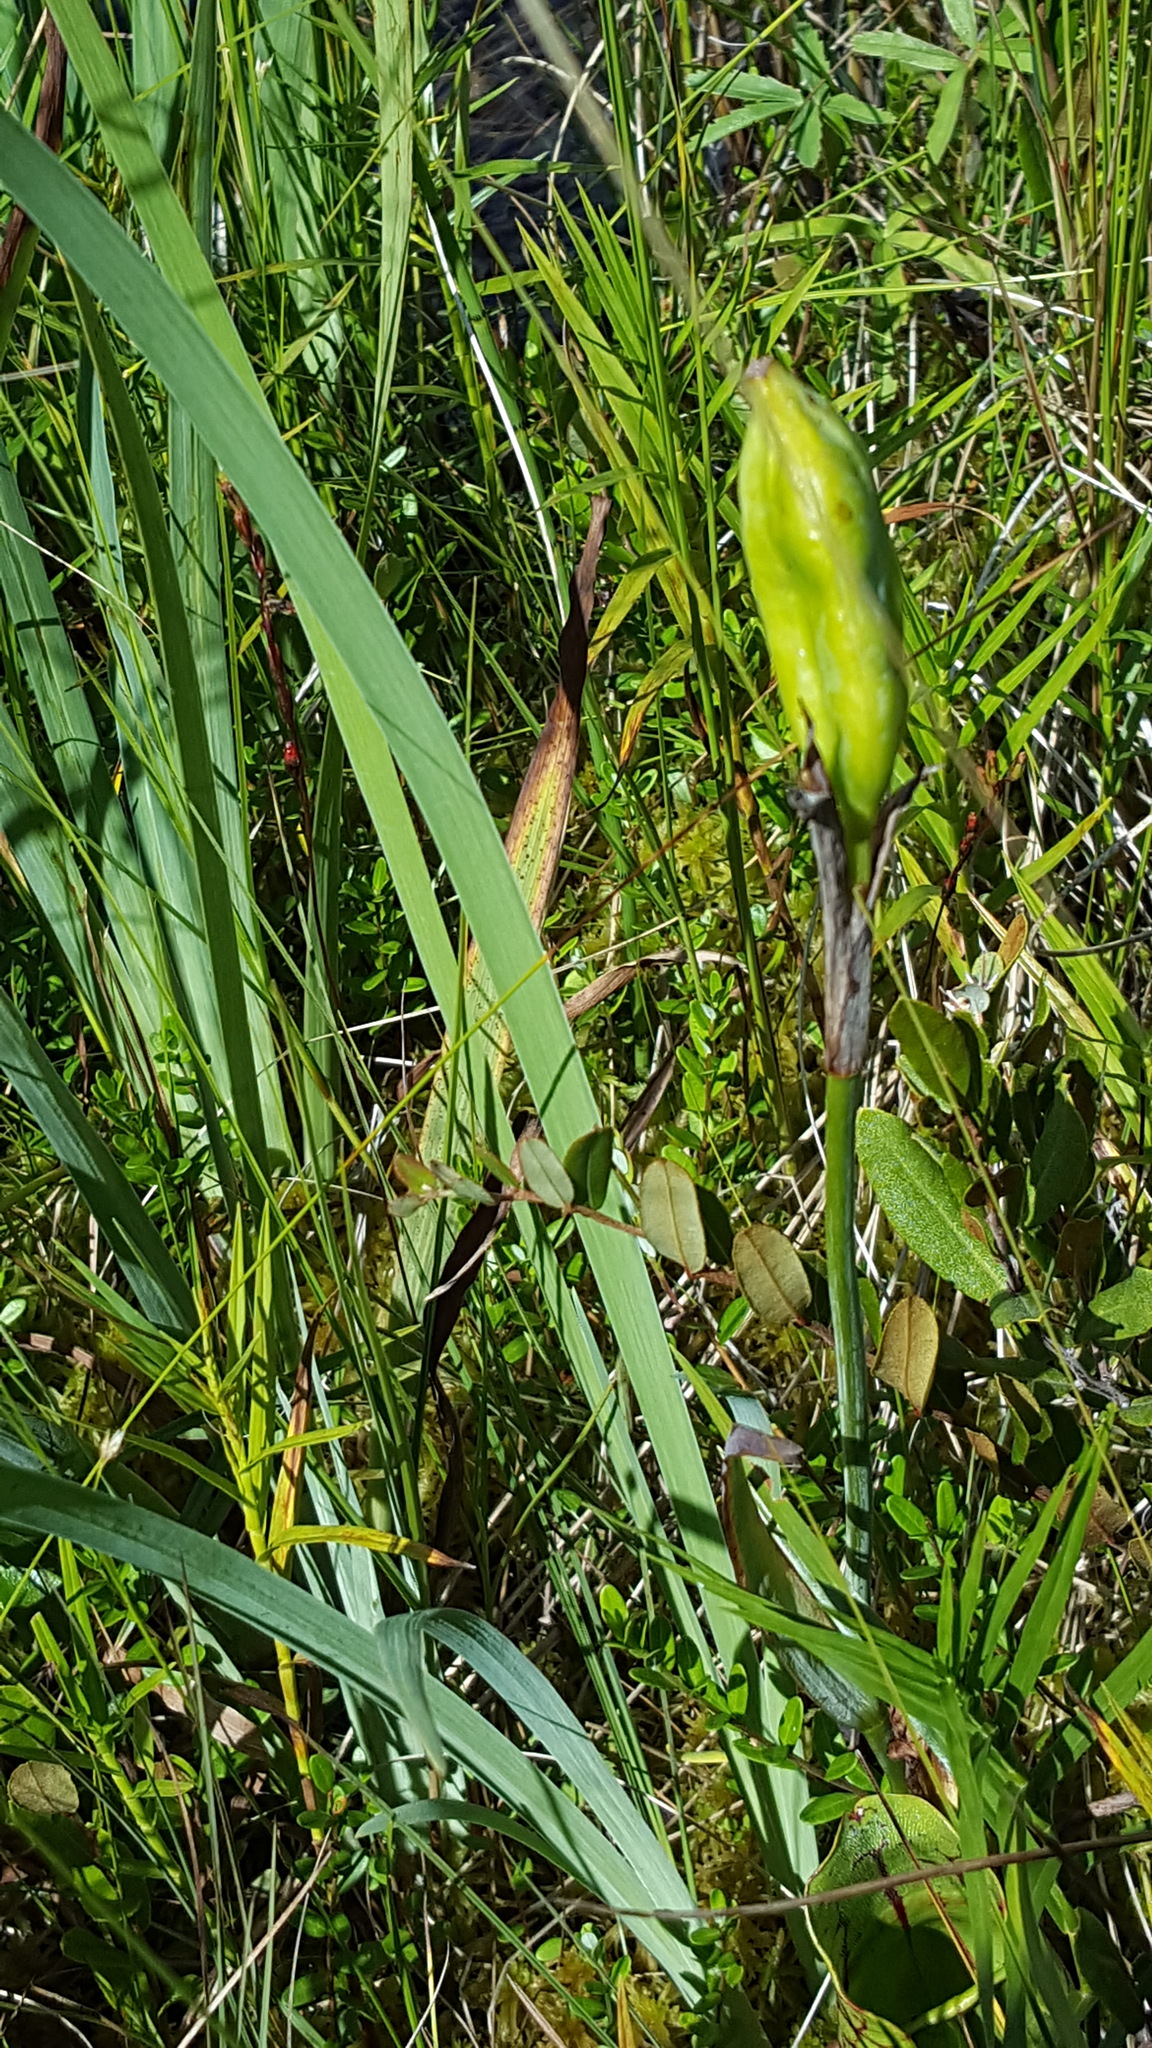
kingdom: Plantae
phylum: Tracheophyta
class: Liliopsida
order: Asparagales
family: Iridaceae
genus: Iris
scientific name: Iris versicolor
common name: Purple iris
